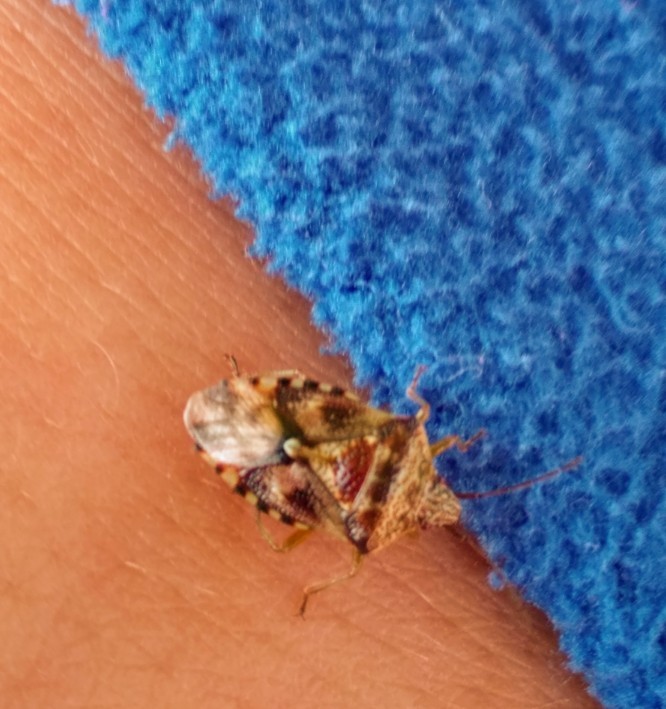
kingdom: Animalia
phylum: Arthropoda
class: Insecta
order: Hemiptera
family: Acanthosomatidae
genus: Elasmucha
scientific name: Elasmucha lateralis
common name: Shield bug
